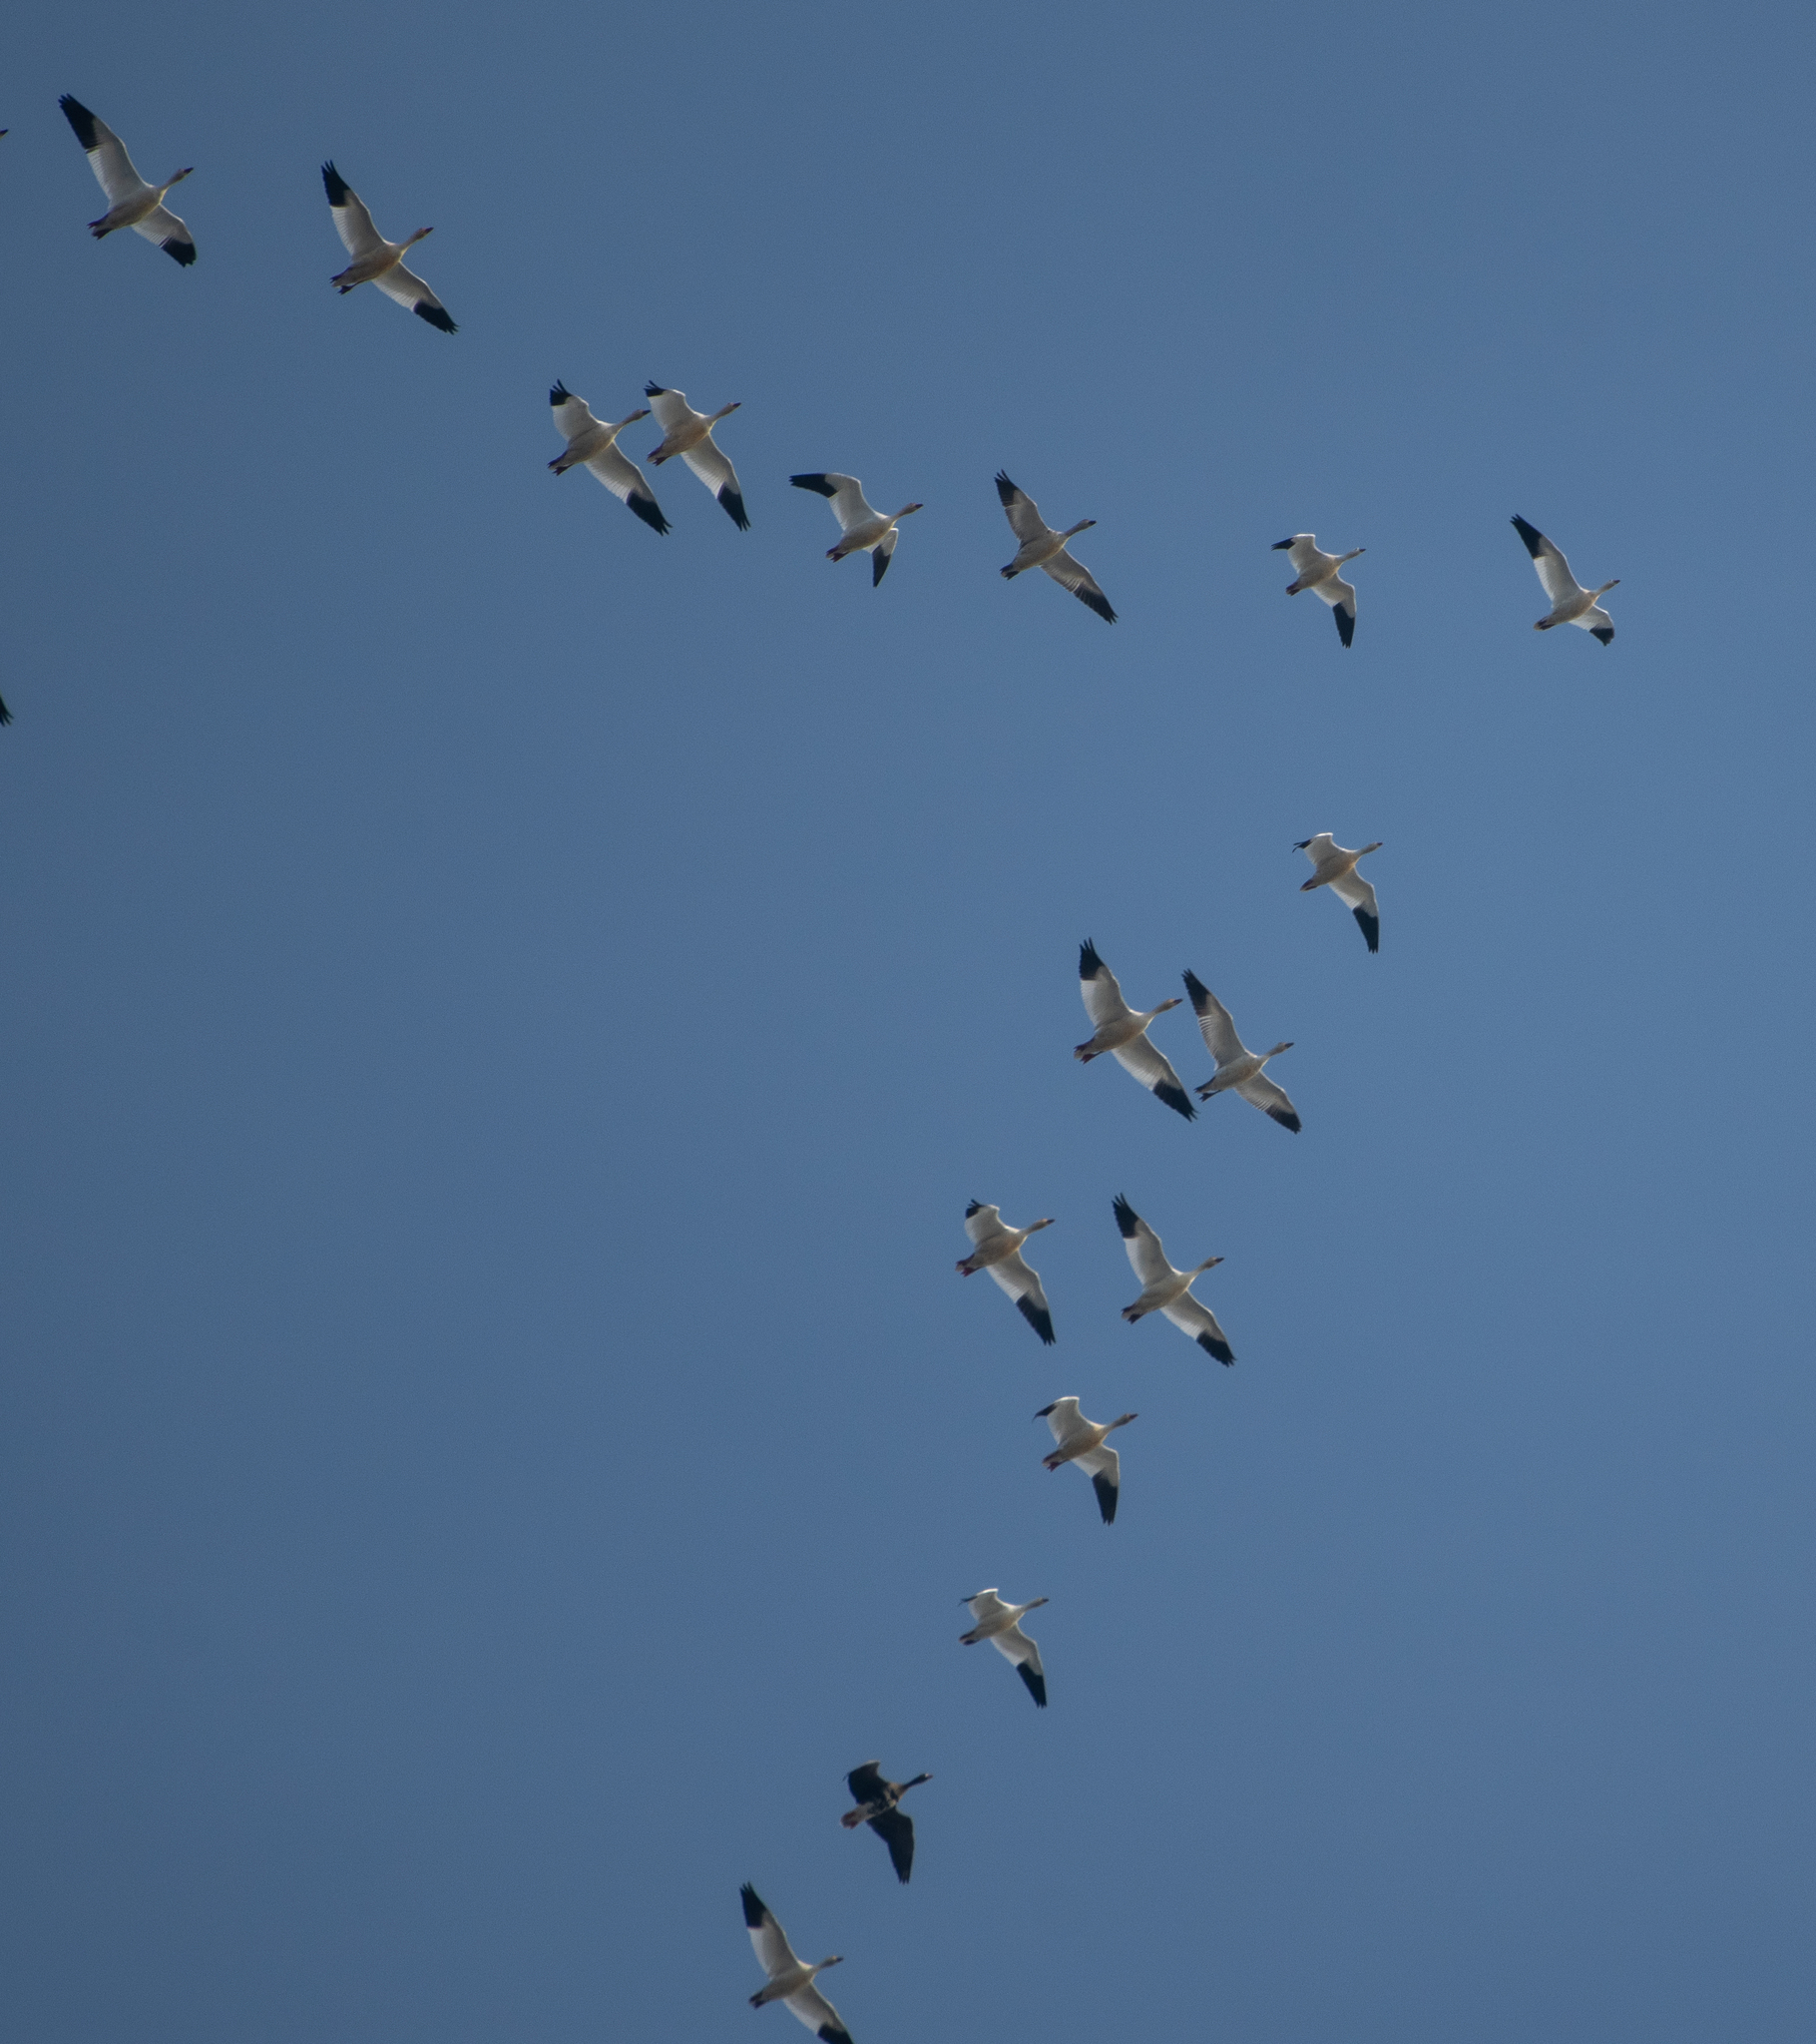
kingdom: Animalia
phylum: Chordata
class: Aves
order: Anseriformes
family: Anatidae
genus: Anser
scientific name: Anser caerulescens
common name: Snow goose
